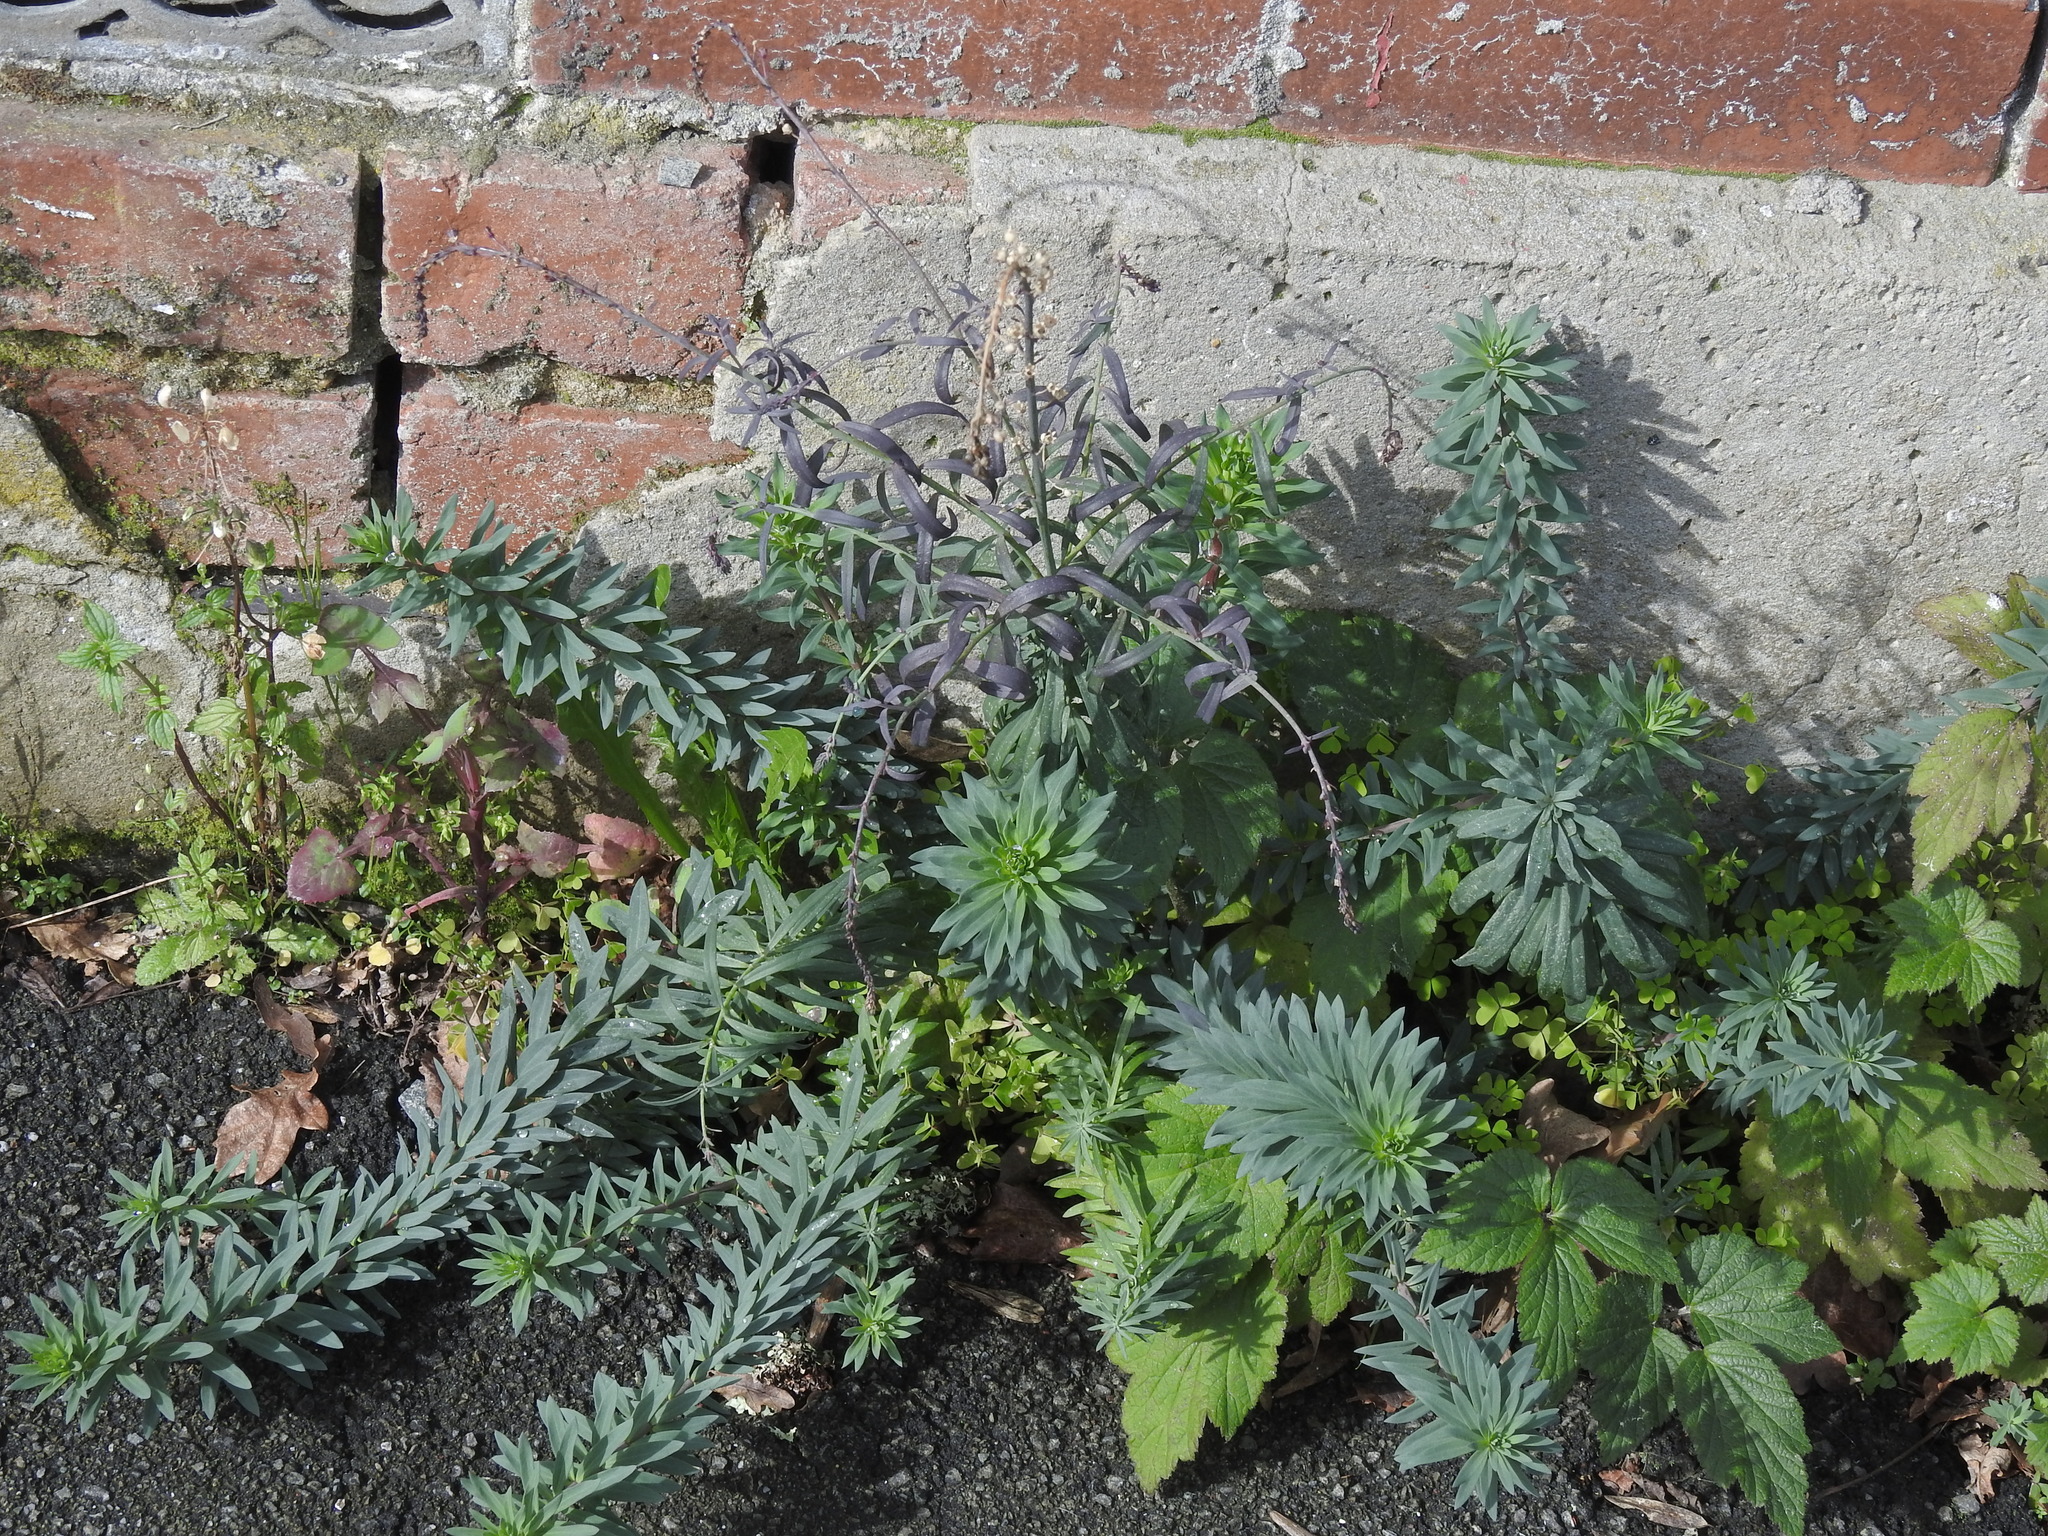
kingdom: Plantae
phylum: Tracheophyta
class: Magnoliopsida
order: Lamiales
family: Plantaginaceae
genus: Linaria
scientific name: Linaria purpurea
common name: Purple toadflax
